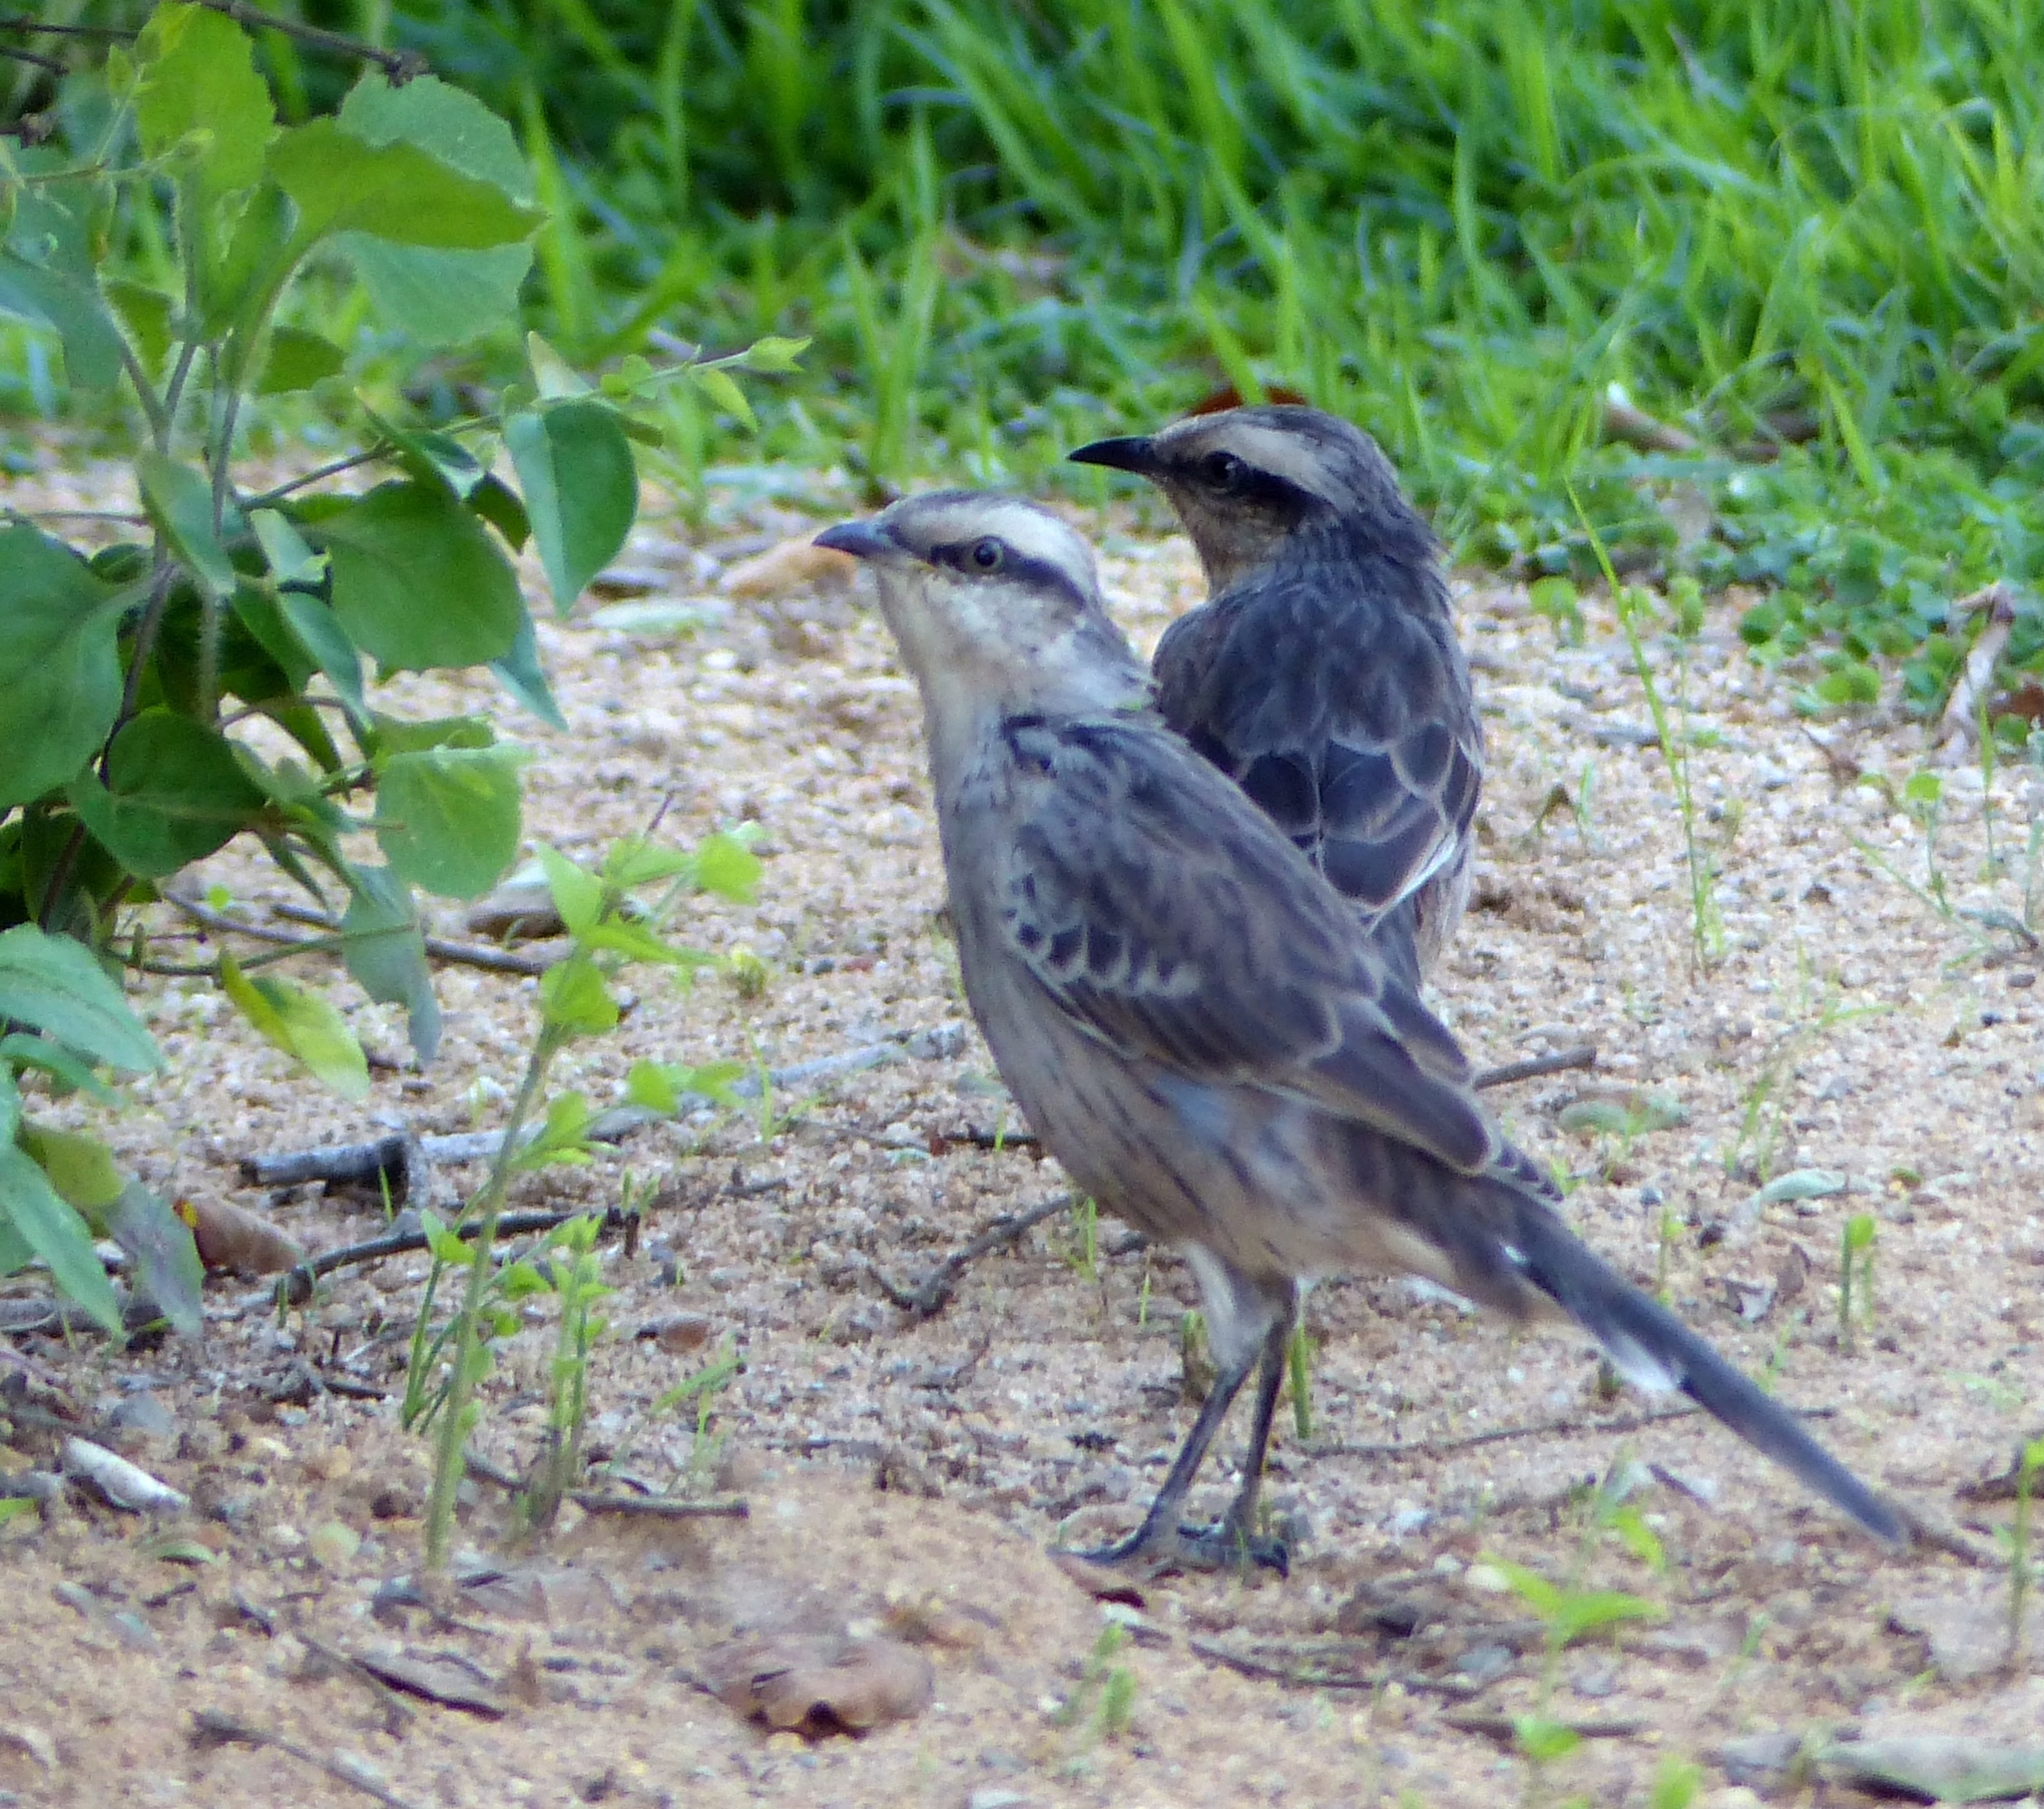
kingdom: Animalia
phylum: Chordata
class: Aves
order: Passeriformes
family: Mimidae
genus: Mimus
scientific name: Mimus saturninus
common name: Chalk-browed mockingbird
